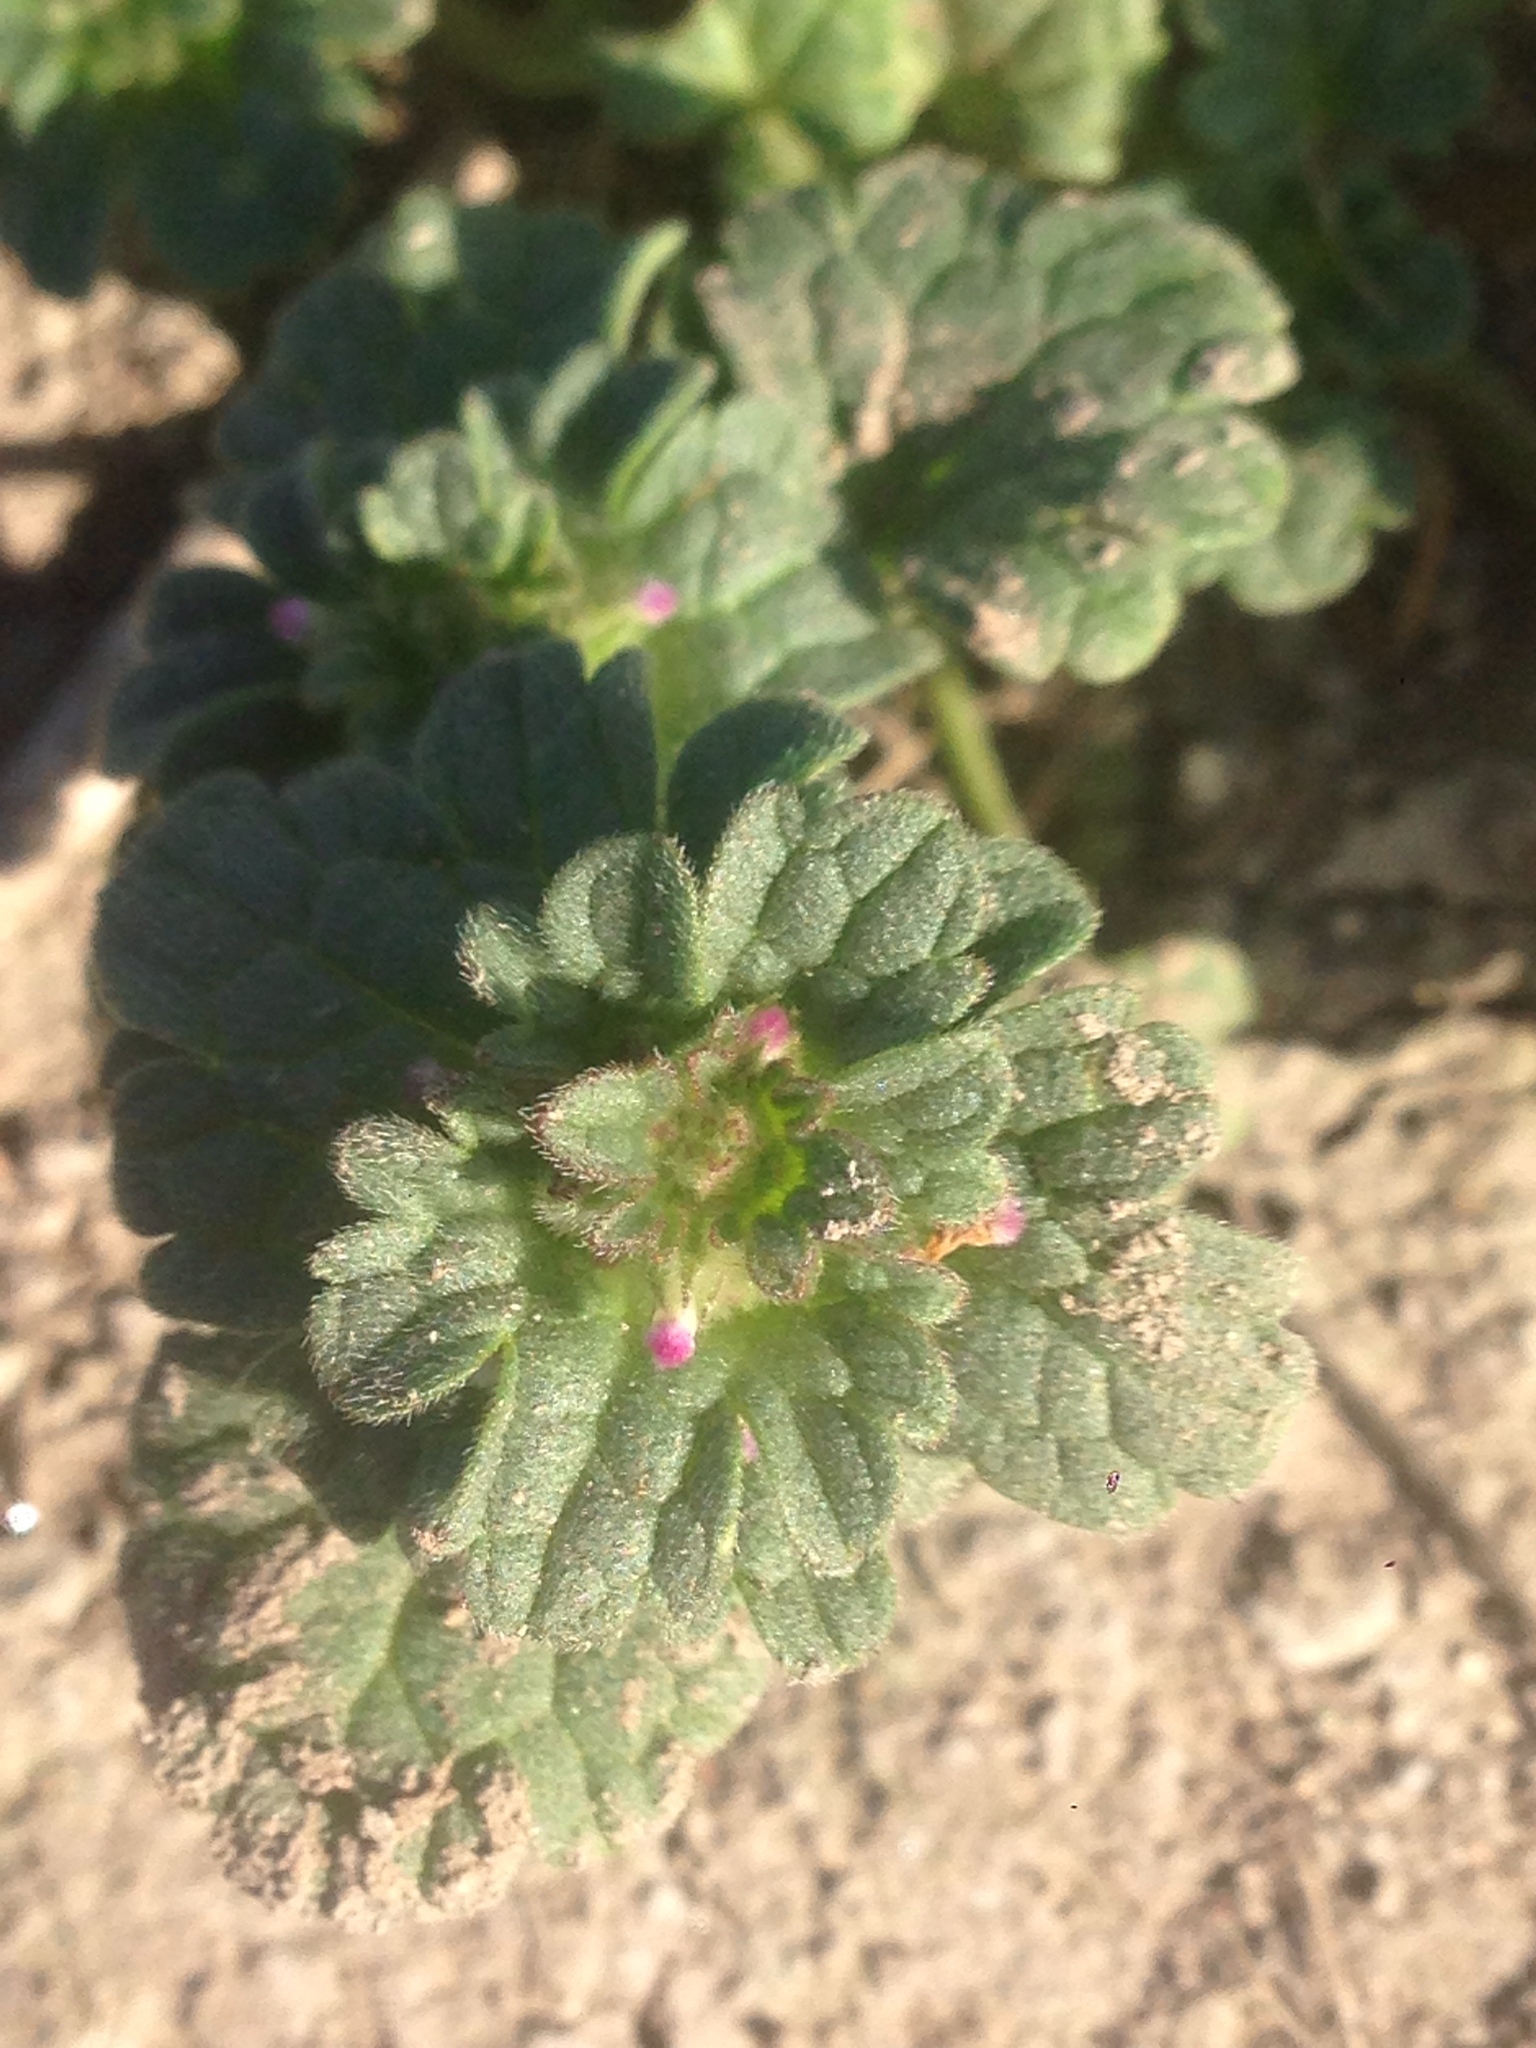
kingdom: Plantae
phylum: Tracheophyta
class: Magnoliopsida
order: Lamiales
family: Lamiaceae
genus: Lamium
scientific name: Lamium amplexicaule
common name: Henbit dead-nettle
